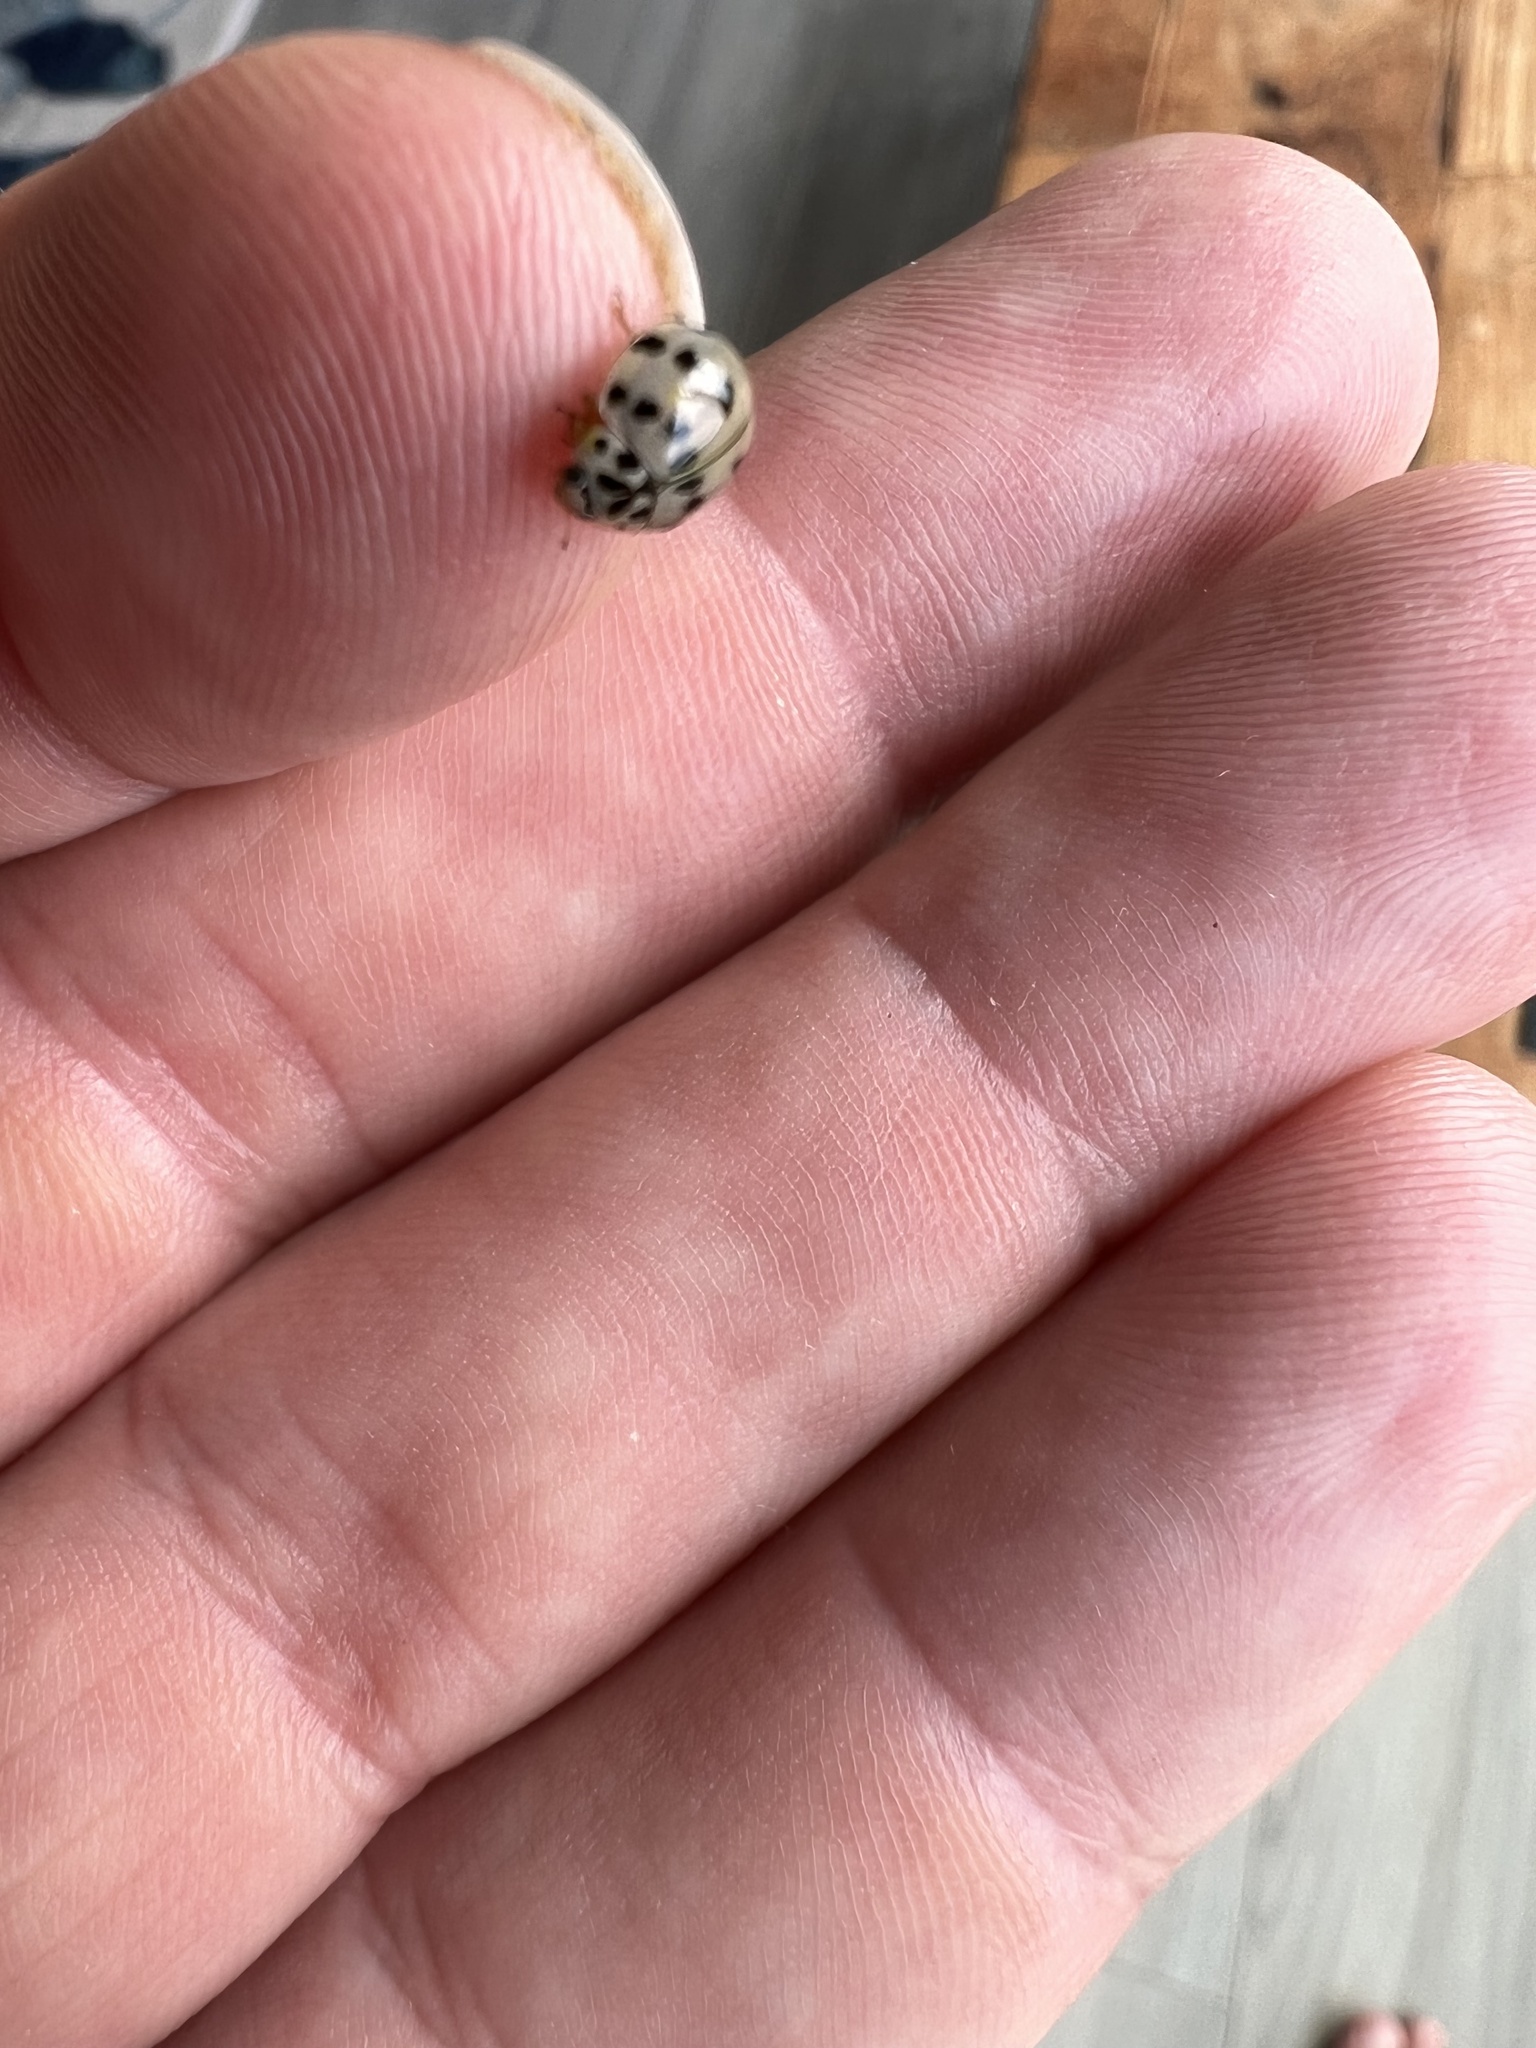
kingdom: Animalia
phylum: Arthropoda
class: Insecta
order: Coleoptera
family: Coccinellidae
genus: Olla
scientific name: Olla v-nigrum
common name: Ashy gray lady beetle
